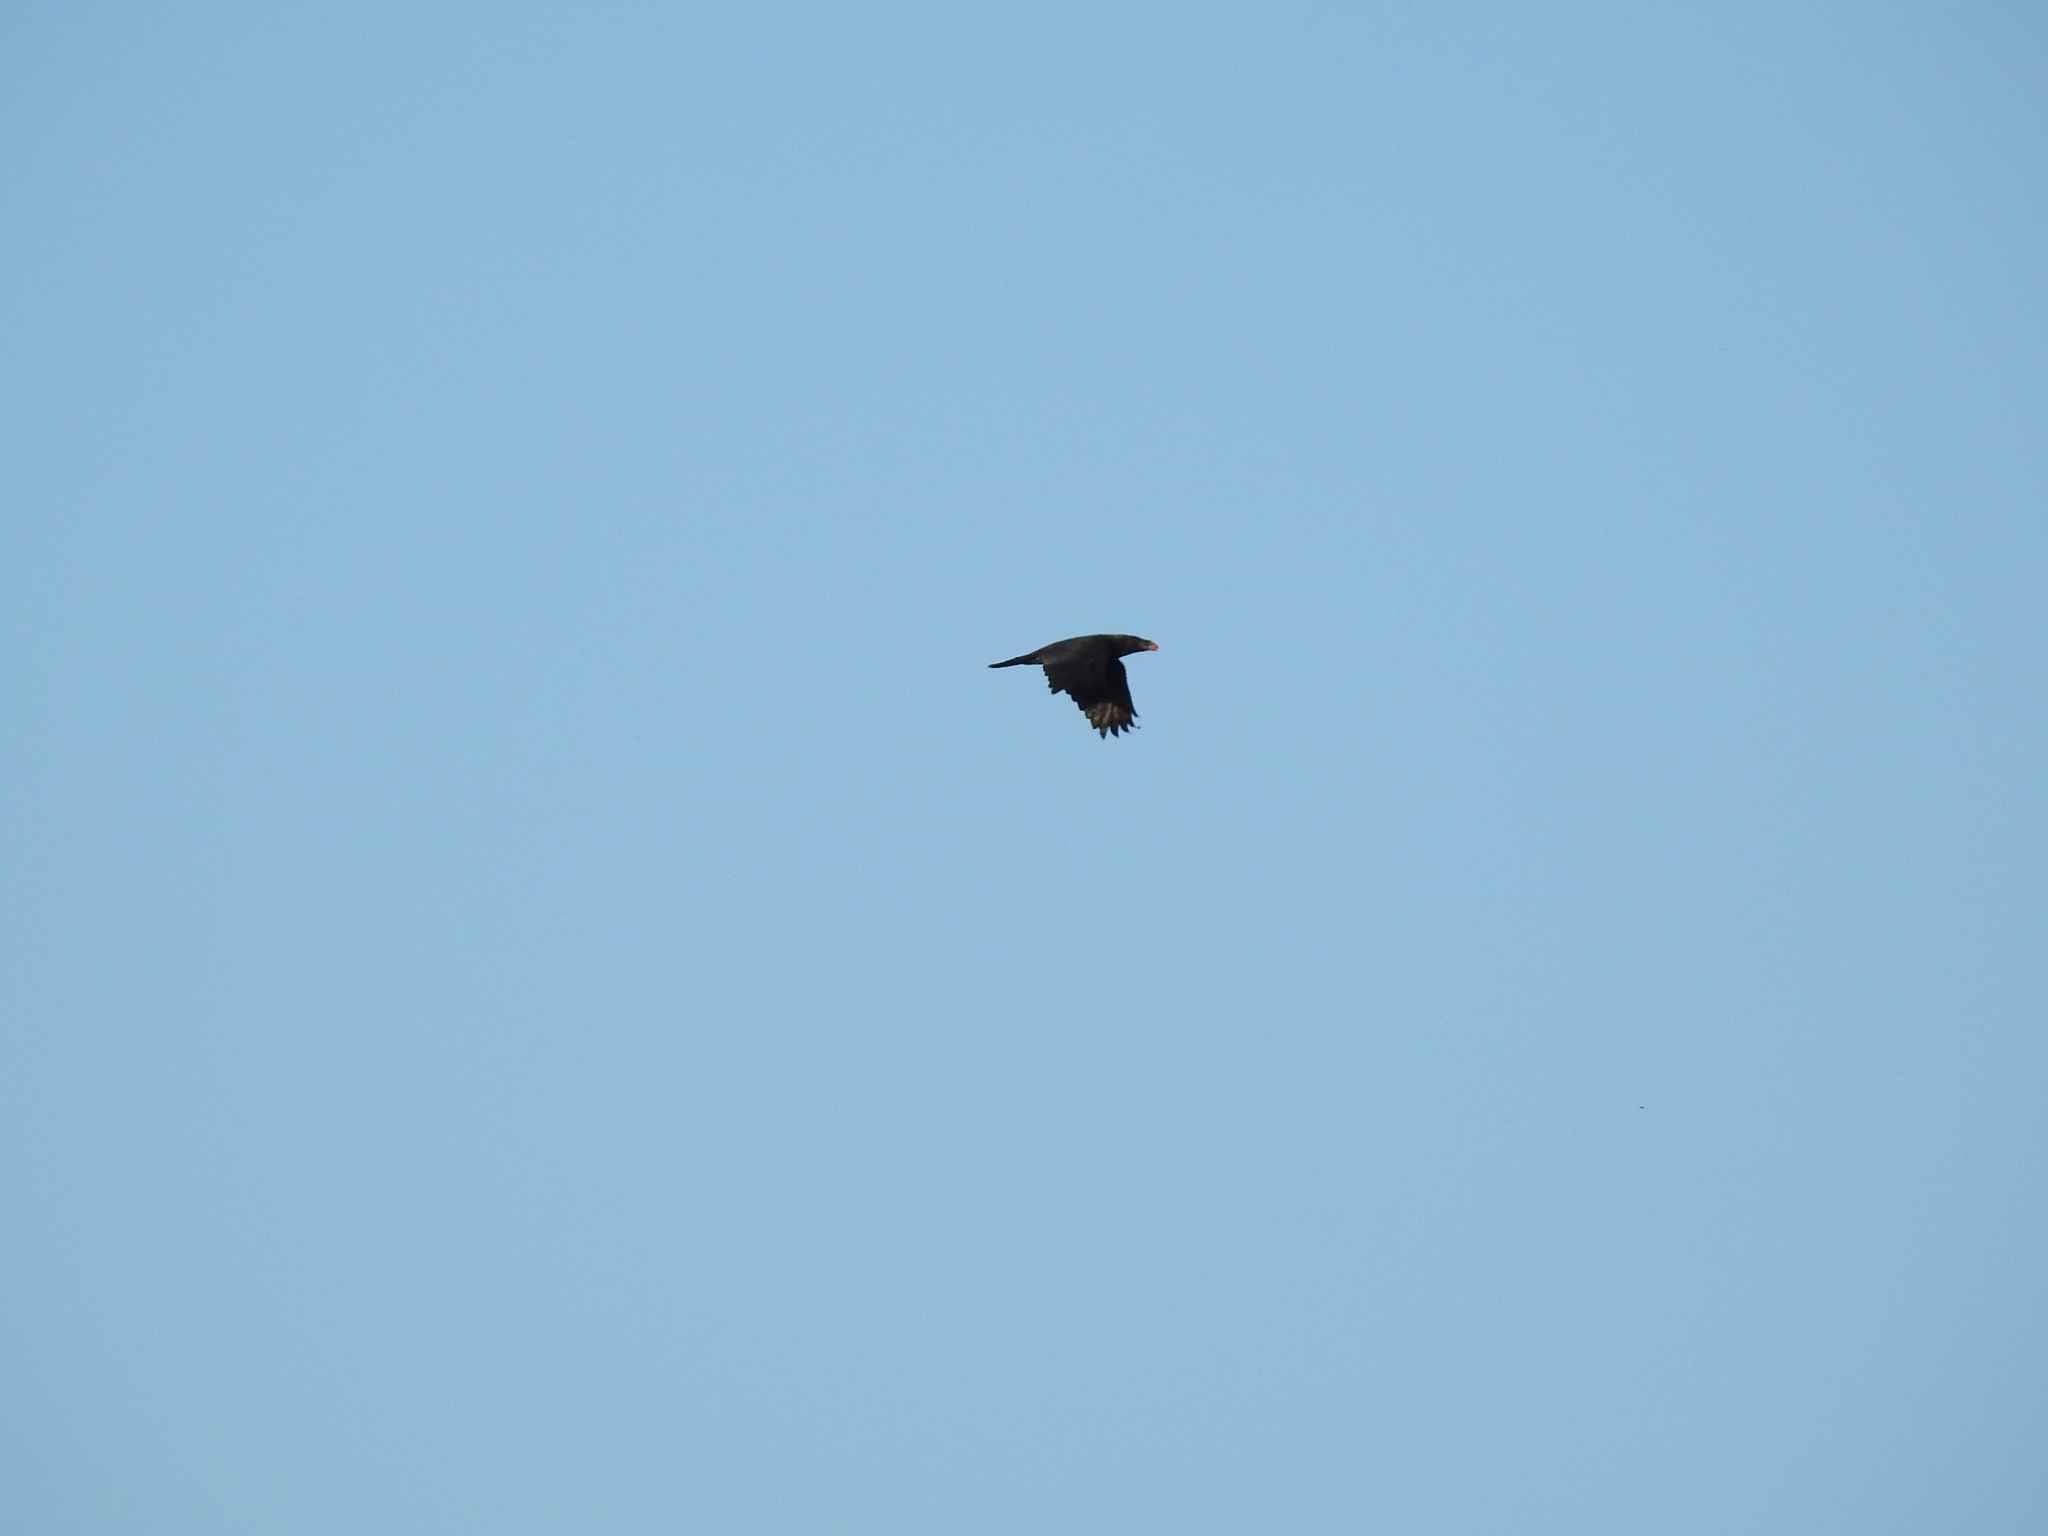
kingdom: Animalia
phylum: Chordata
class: Aves
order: Passeriformes
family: Corvidae
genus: Corvus
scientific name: Corvus corax
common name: Common raven
